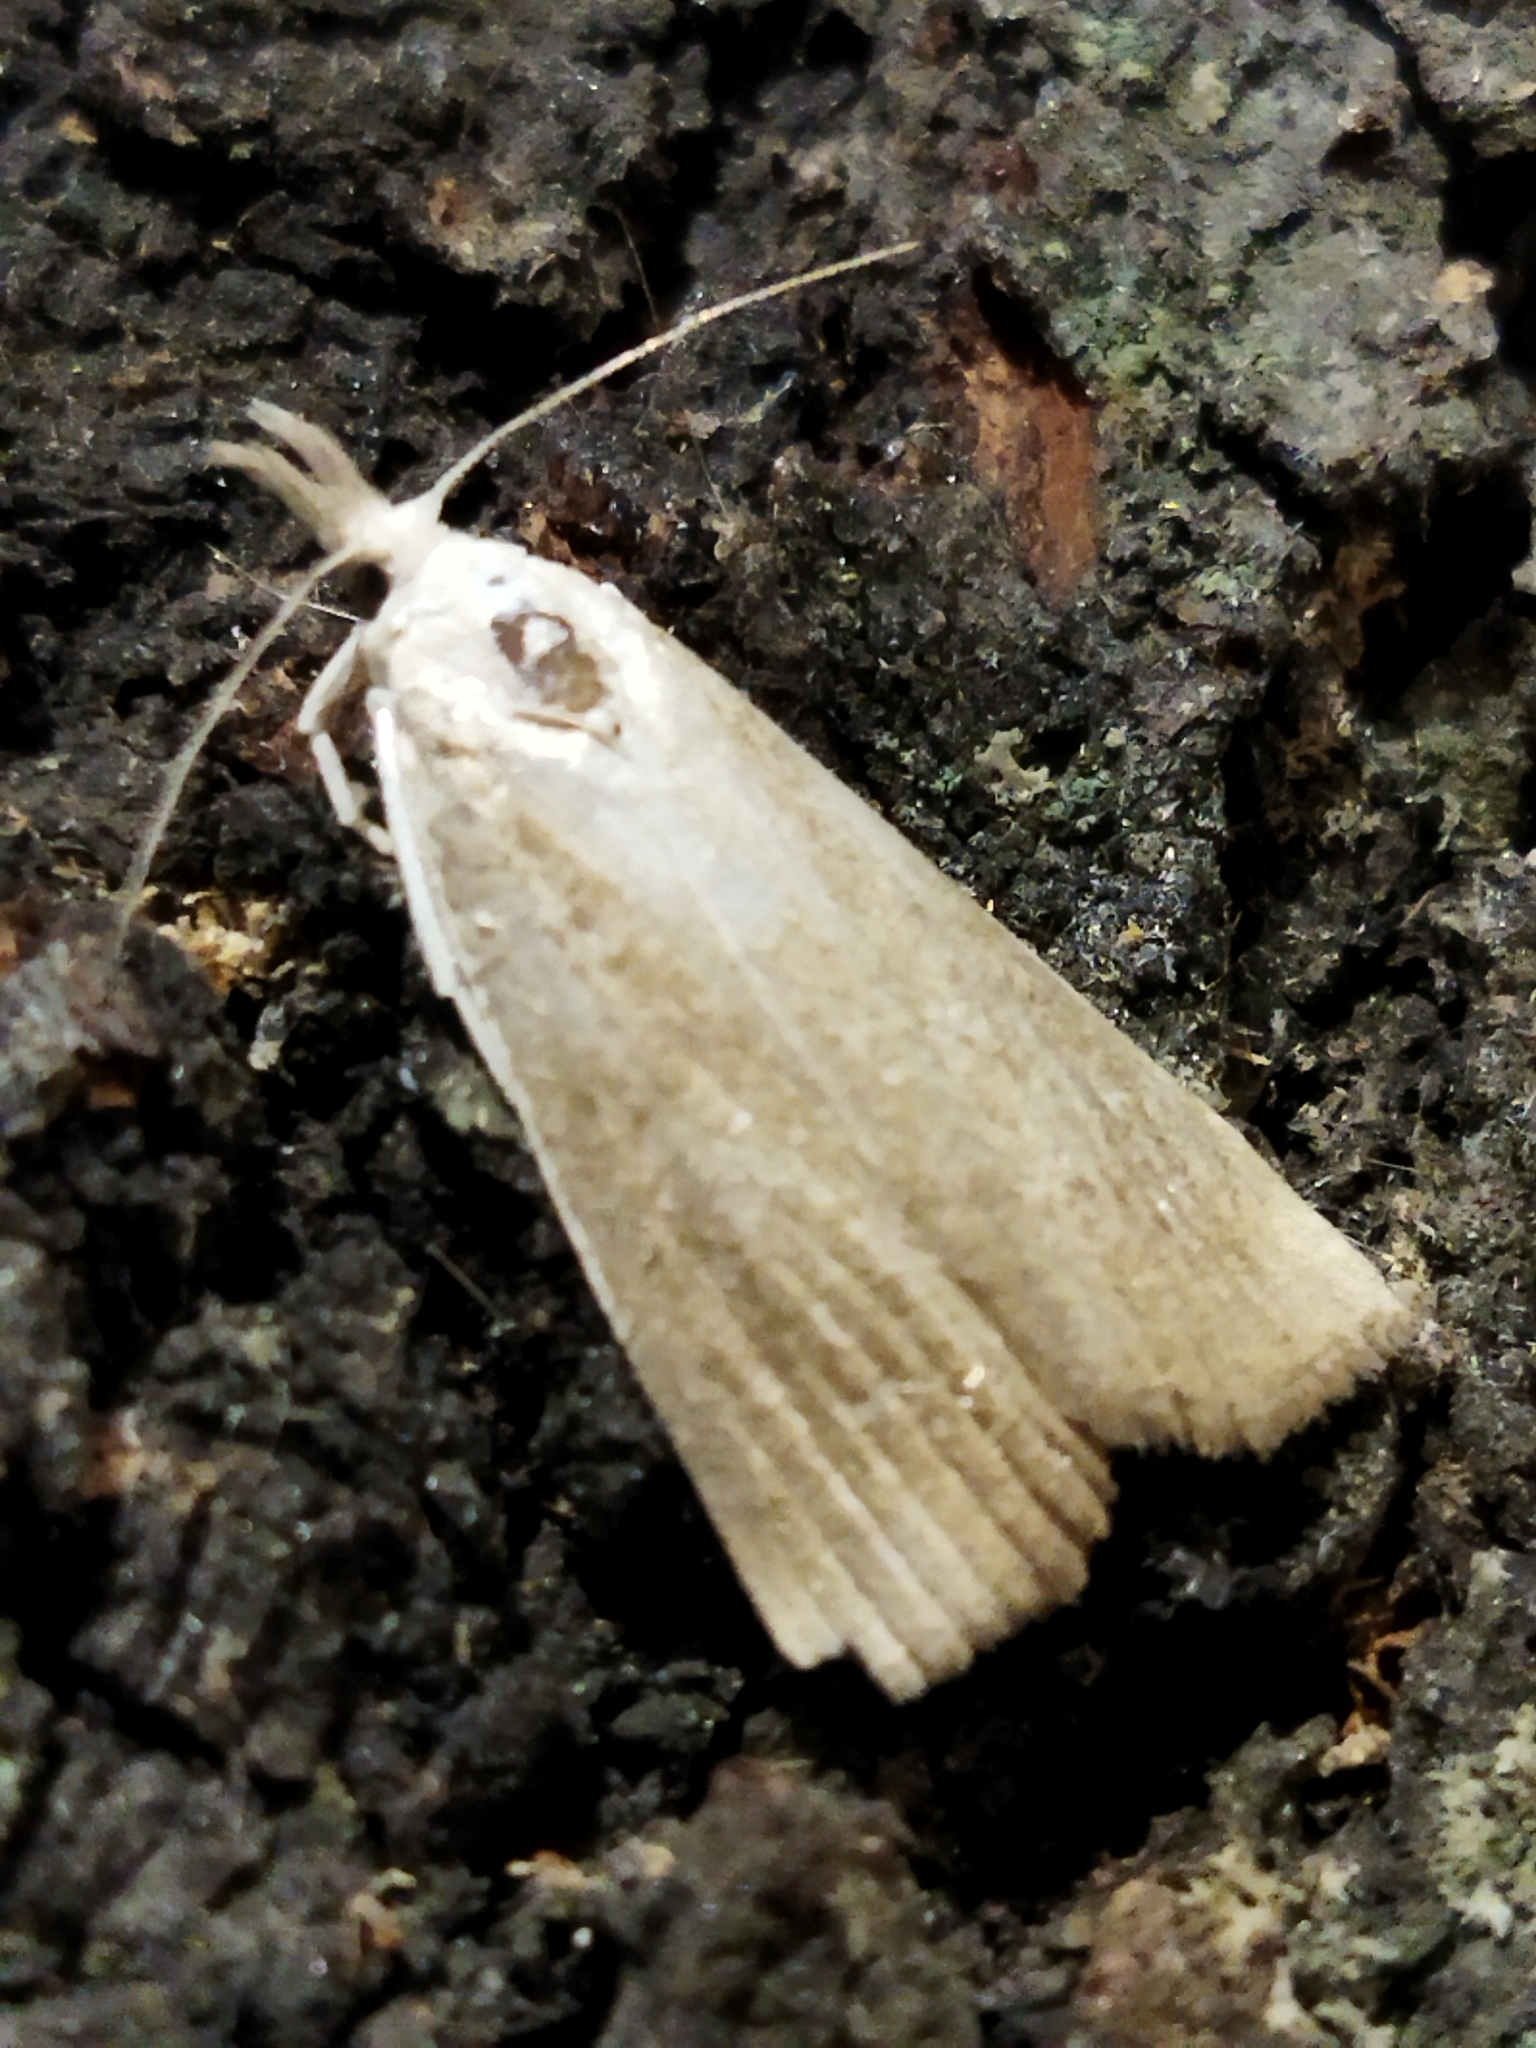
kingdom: Animalia
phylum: Arthropoda
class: Insecta
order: Lepidoptera
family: Crambidae
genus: Calamotropha
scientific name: Calamotropha paludella
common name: Bulrush veneer
